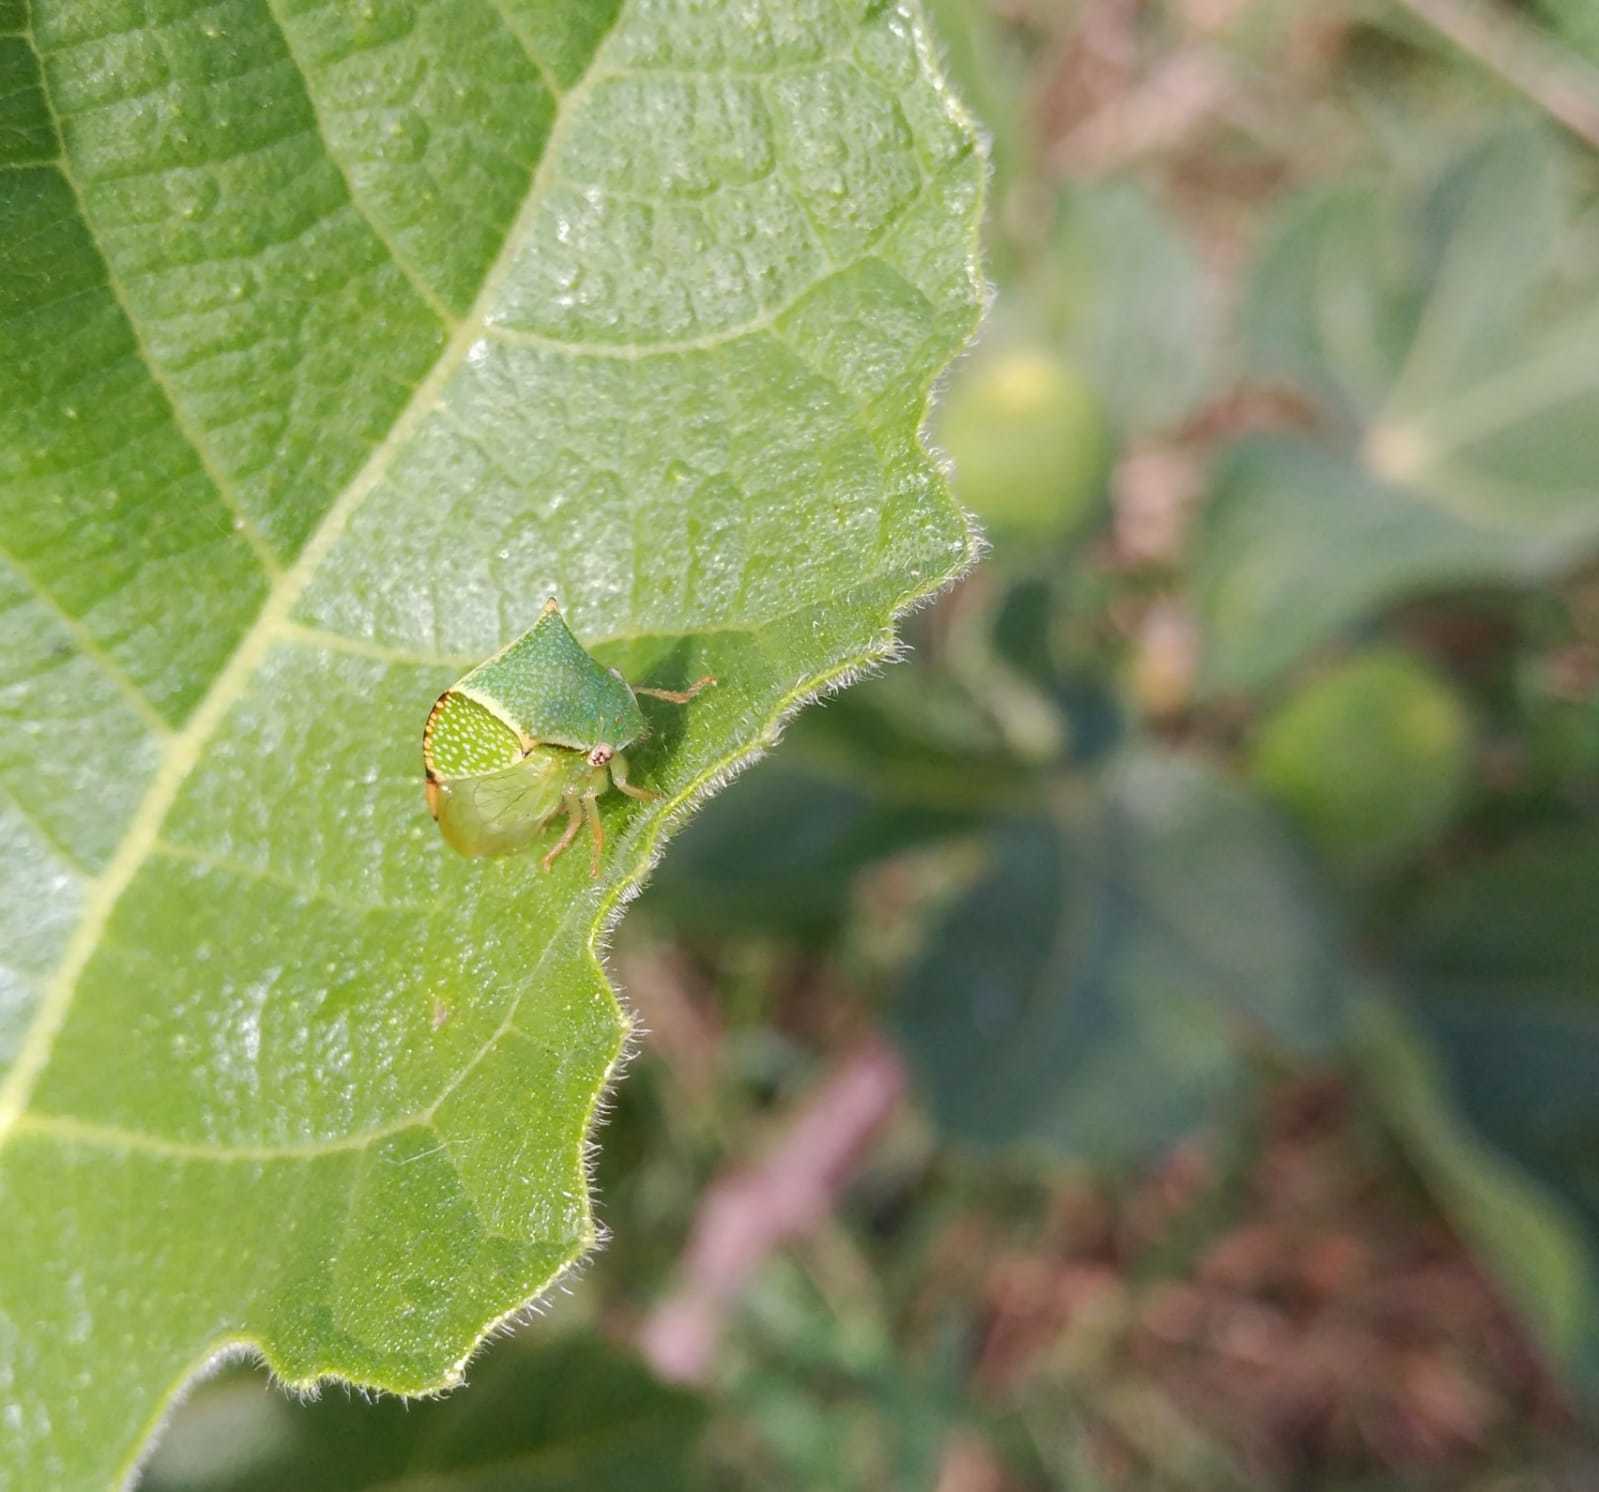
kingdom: Animalia
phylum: Arthropoda
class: Insecta
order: Hemiptera
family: Membracidae
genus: Stictocephala
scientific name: Stictocephala bisonia
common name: American buffalo treehopper
